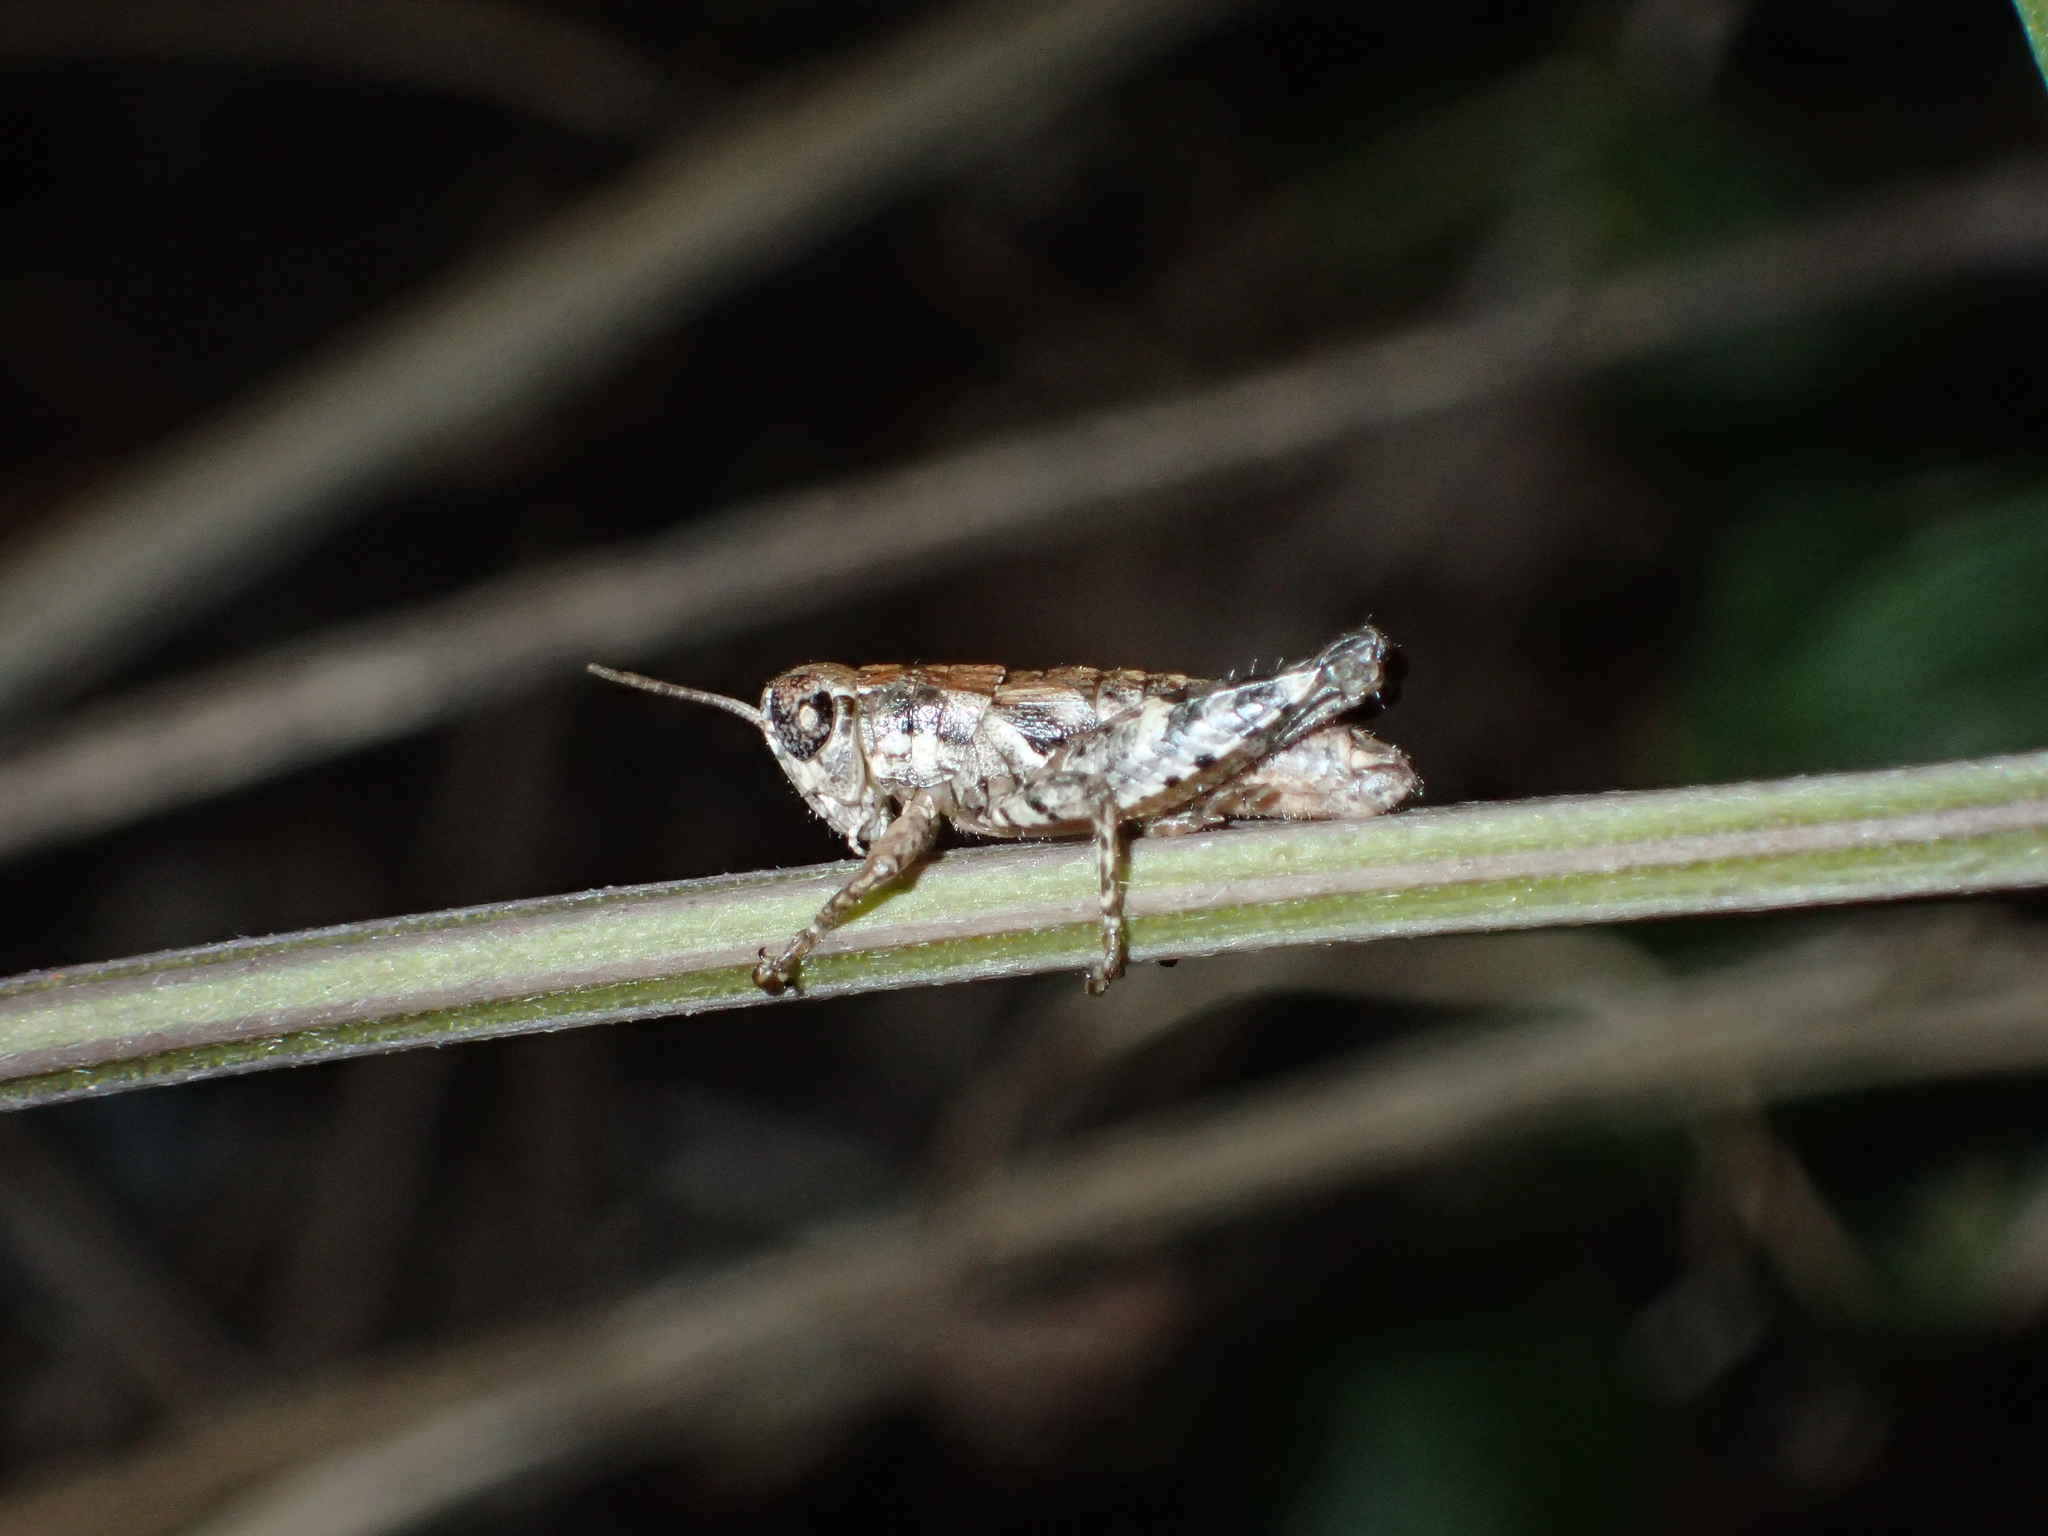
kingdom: Animalia
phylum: Arthropoda
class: Insecta
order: Orthoptera
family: Acrididae
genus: Pezotettix
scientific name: Pezotettix giornae
